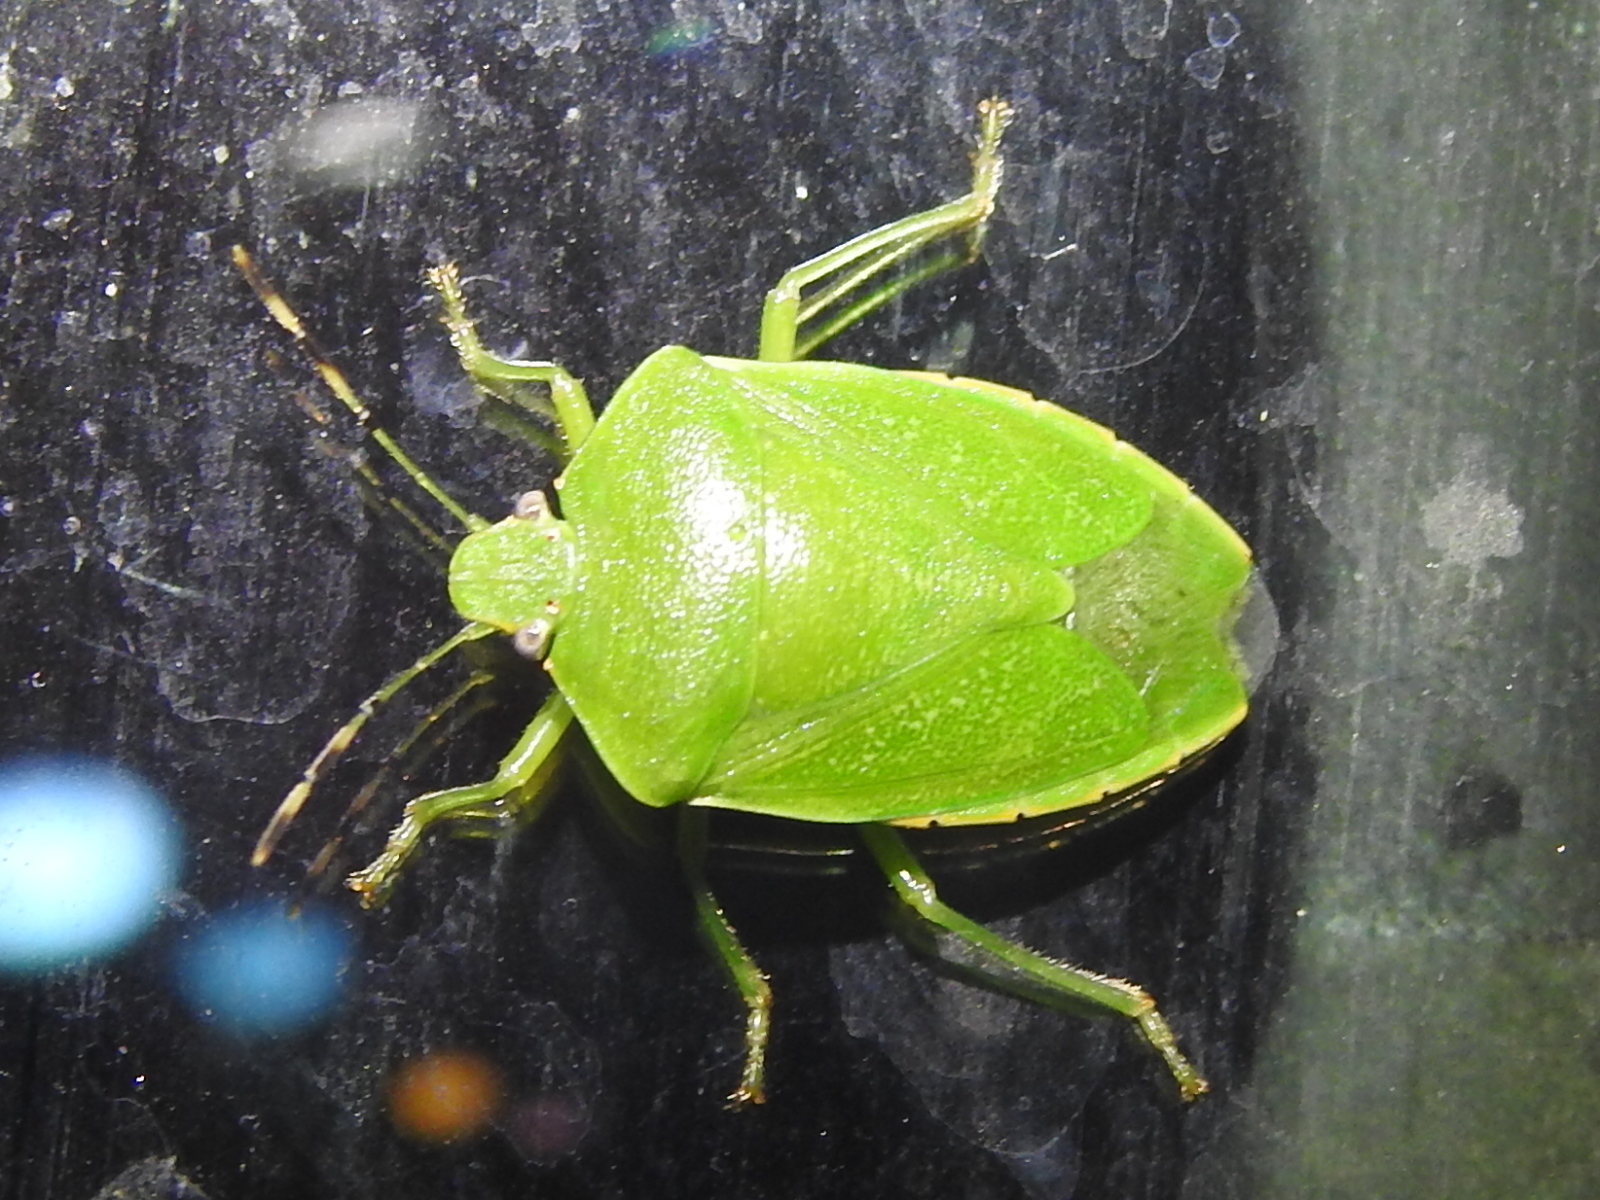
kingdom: Animalia
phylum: Arthropoda
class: Insecta
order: Hemiptera
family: Pentatomidae
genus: Chinavia
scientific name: Chinavia hilaris
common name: Green stink bug
